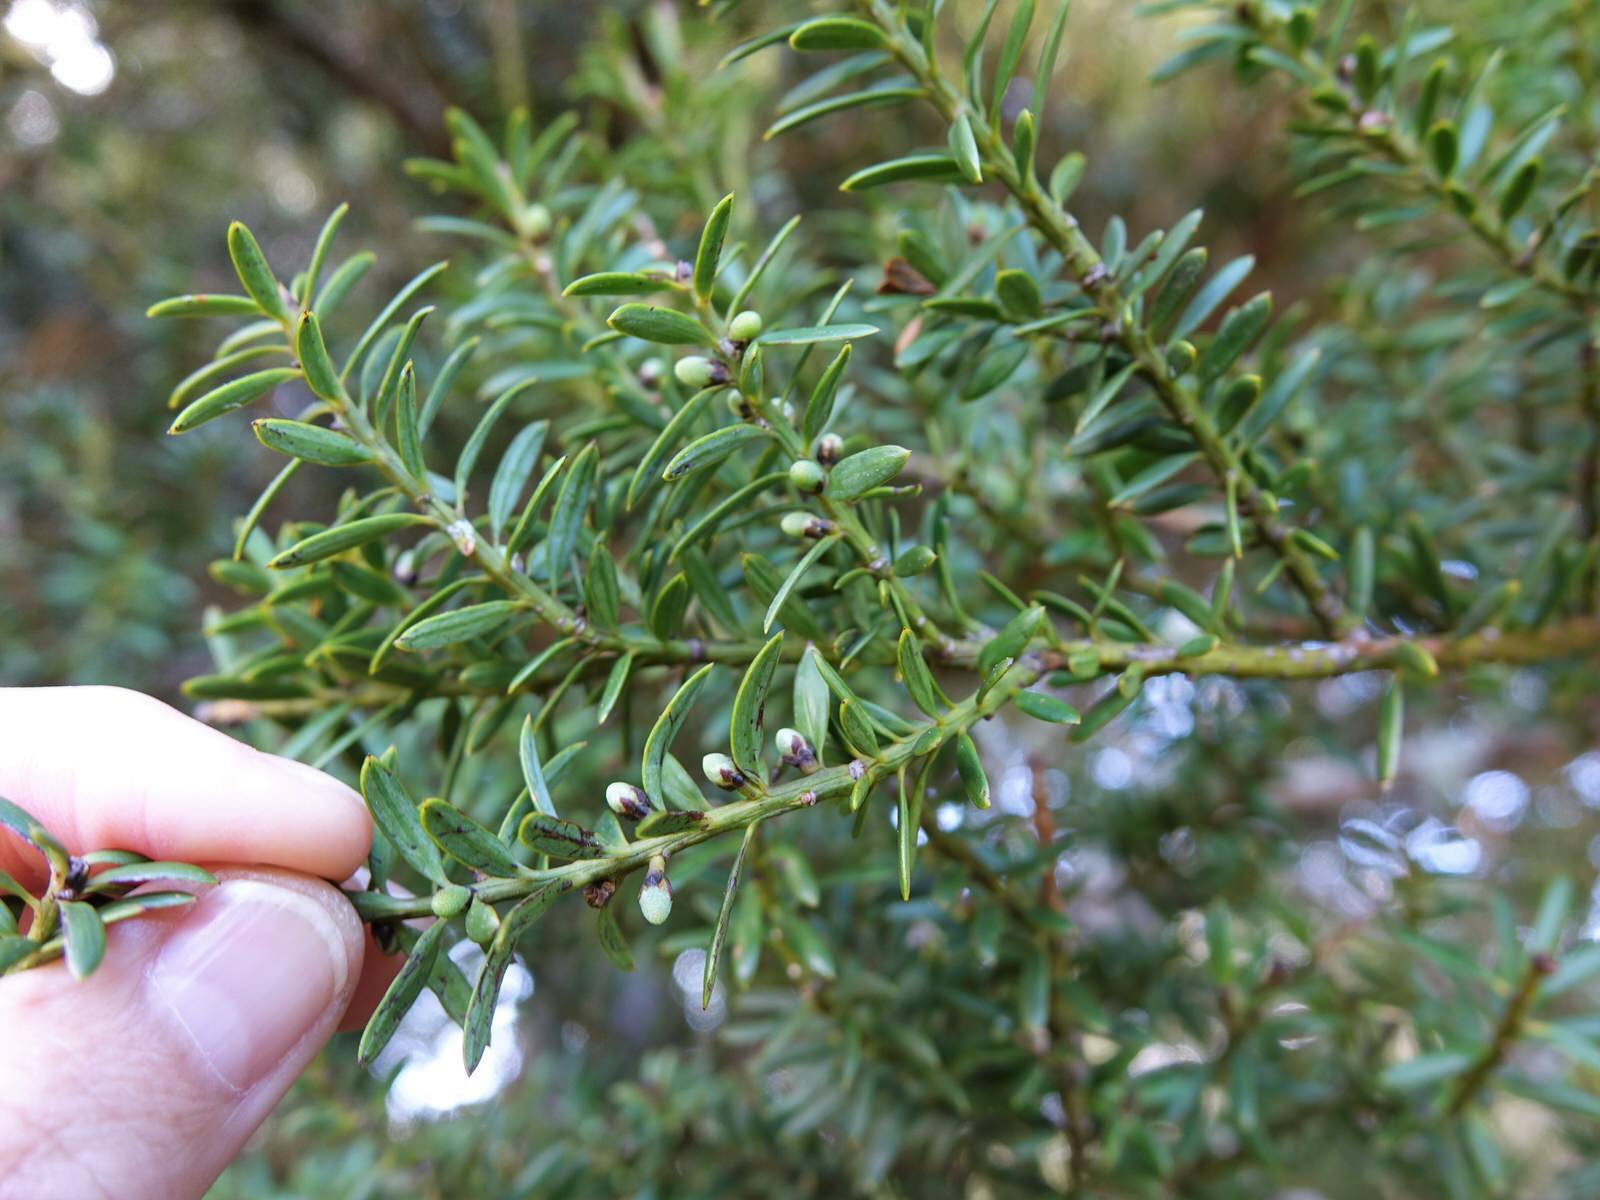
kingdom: Plantae
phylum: Tracheophyta
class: Pinopsida
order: Pinales
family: Podocarpaceae
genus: Podocarpus
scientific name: Podocarpus totara
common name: Totara
